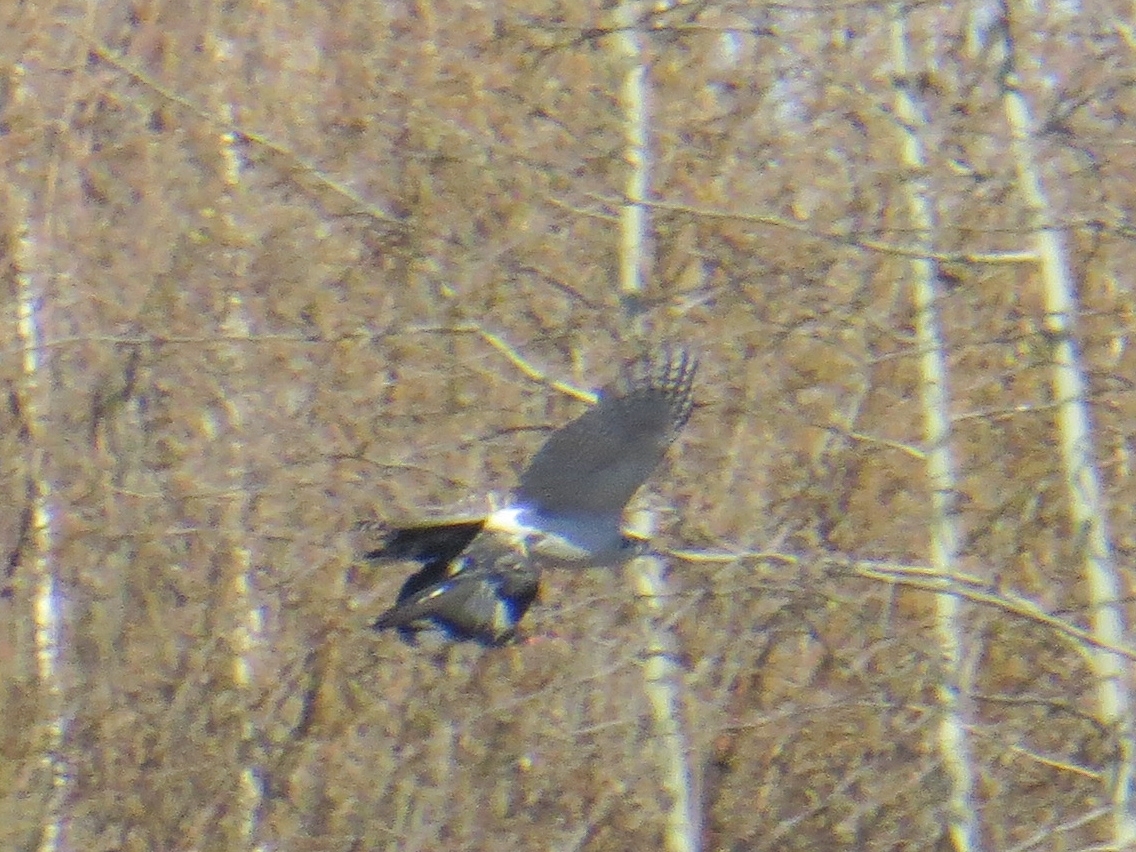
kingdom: Animalia
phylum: Chordata
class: Aves
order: Accipitriformes
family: Accipitridae
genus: Accipiter
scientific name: Accipiter gentilis
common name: Northern goshawk
